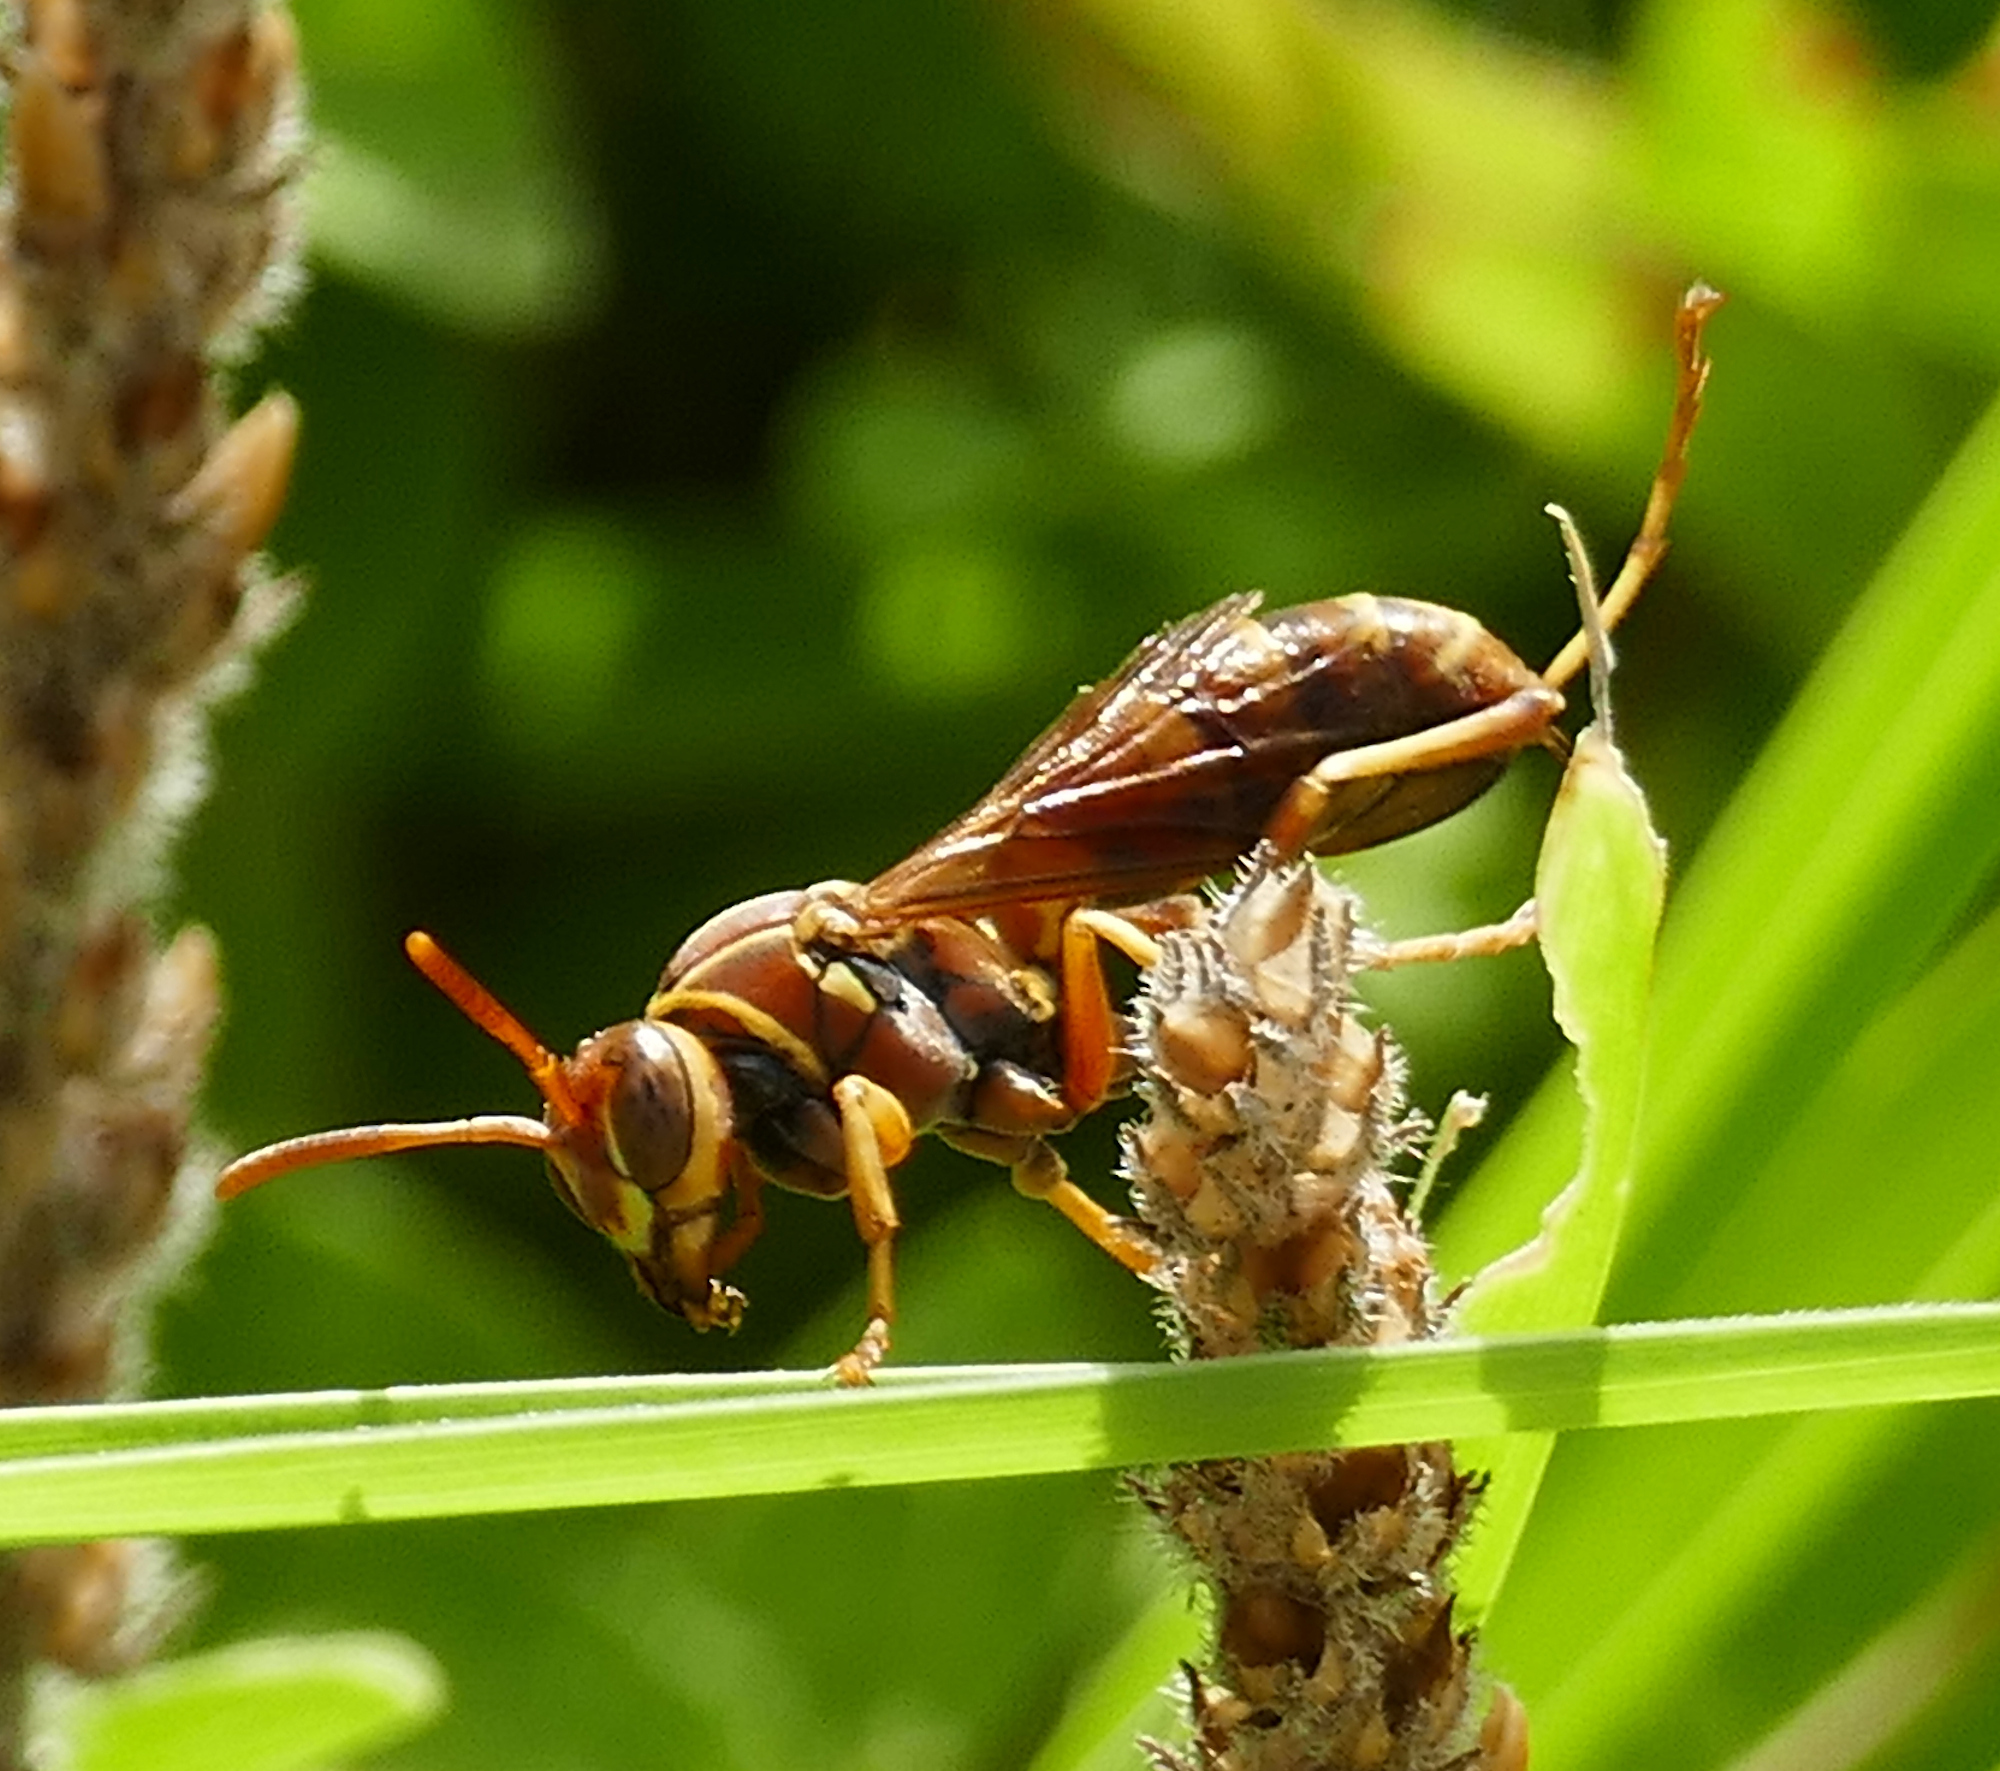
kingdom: Animalia
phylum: Arthropoda
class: Insecta
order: Hymenoptera
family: Eumenidae
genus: Polistes
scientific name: Polistes dorsalis
